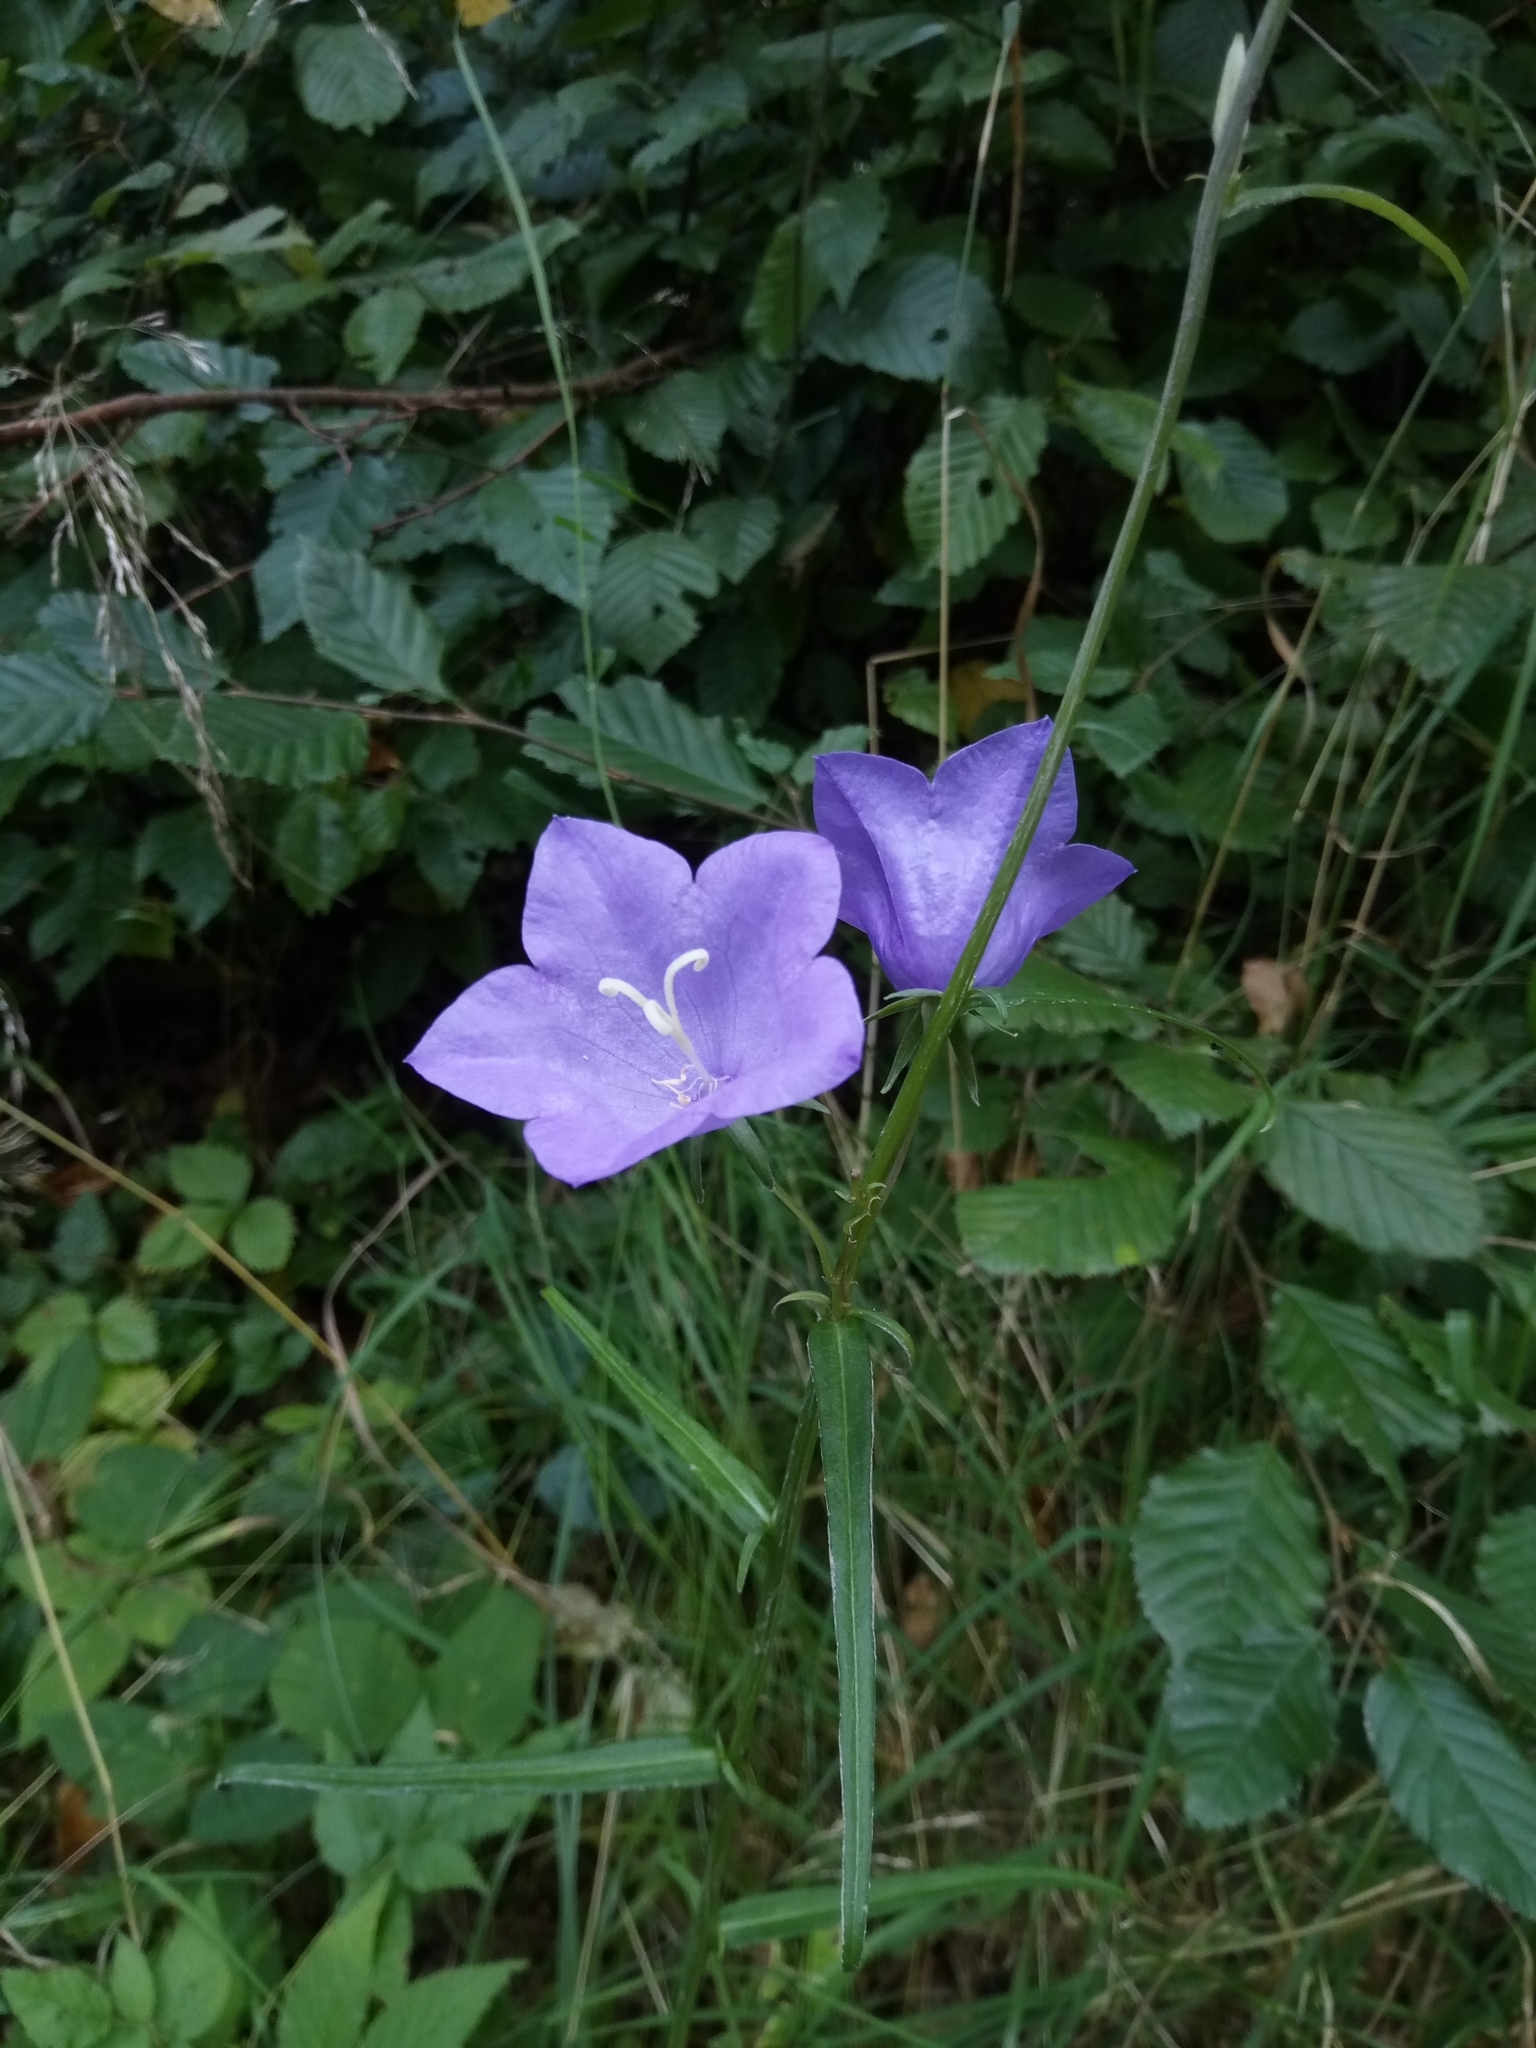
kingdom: Plantae
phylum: Tracheophyta
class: Magnoliopsida
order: Asterales
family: Campanulaceae
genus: Campanula
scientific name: Campanula persicifolia
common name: Peach-leaved bellflower
